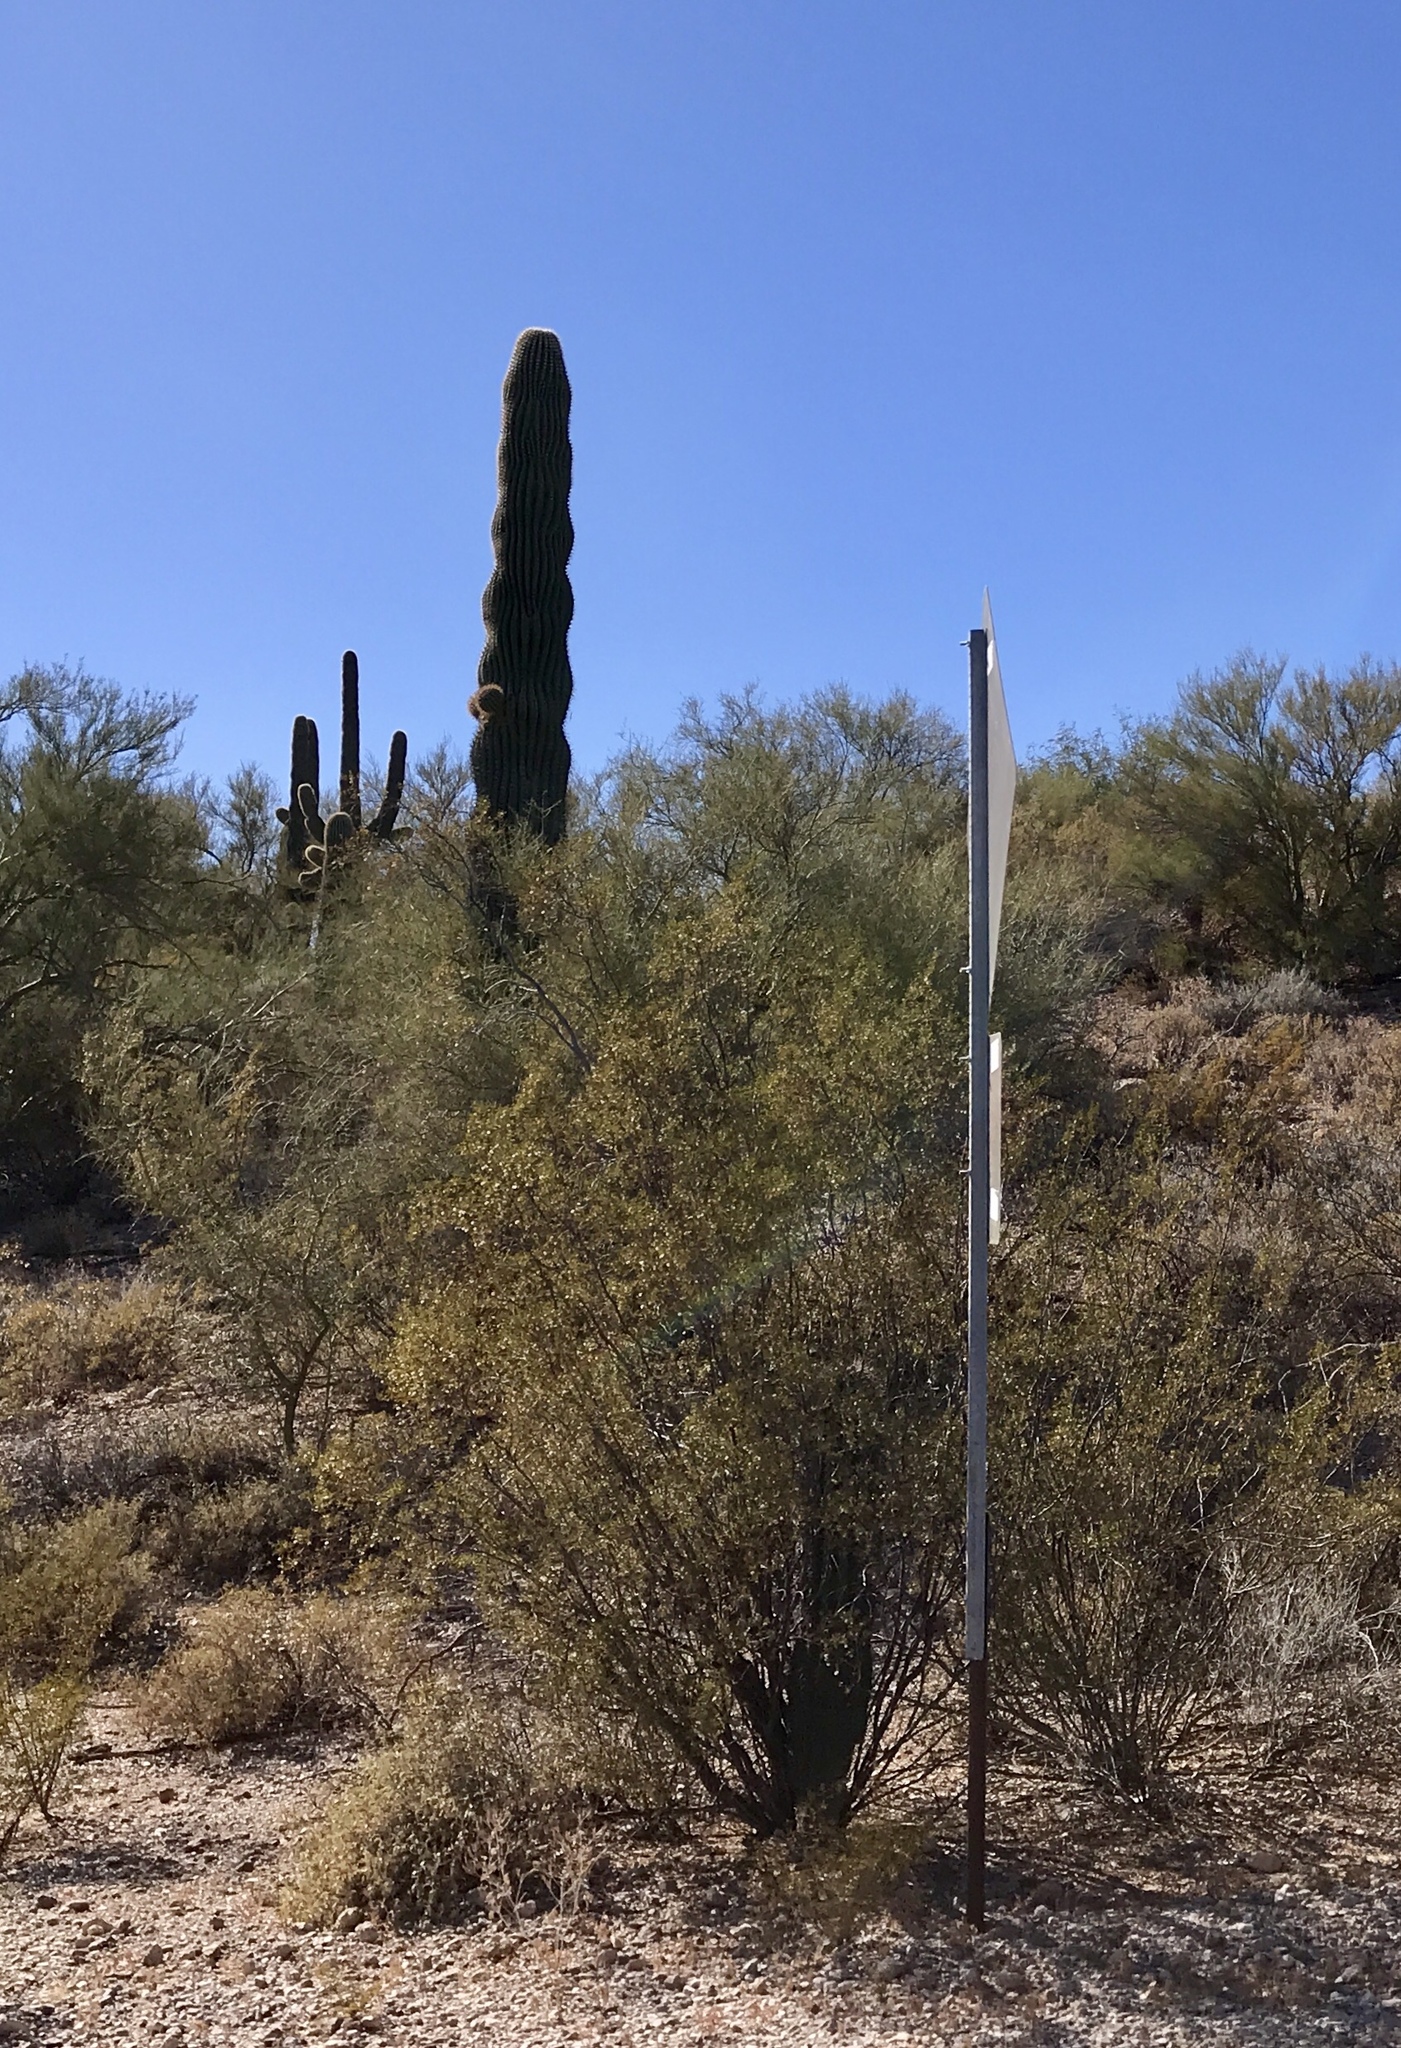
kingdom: Plantae
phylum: Tracheophyta
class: Magnoliopsida
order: Fabales
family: Fabaceae
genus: Vachellia
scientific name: Vachellia constricta
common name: Mescat acacia
